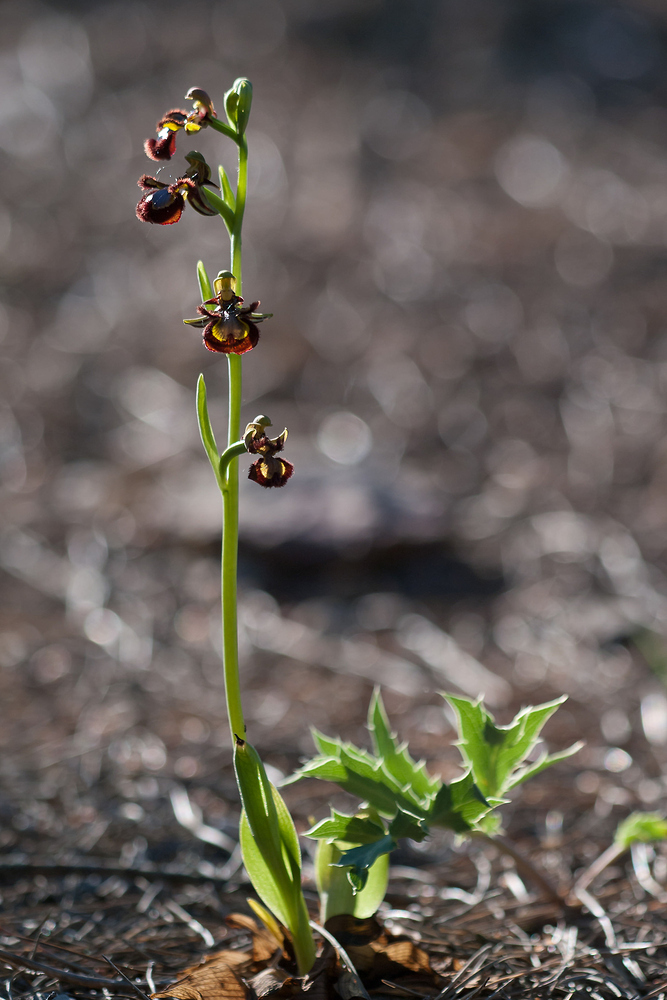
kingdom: Plantae
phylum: Tracheophyta
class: Liliopsida
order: Asparagales
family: Orchidaceae
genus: Ophrys
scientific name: Ophrys speculum
